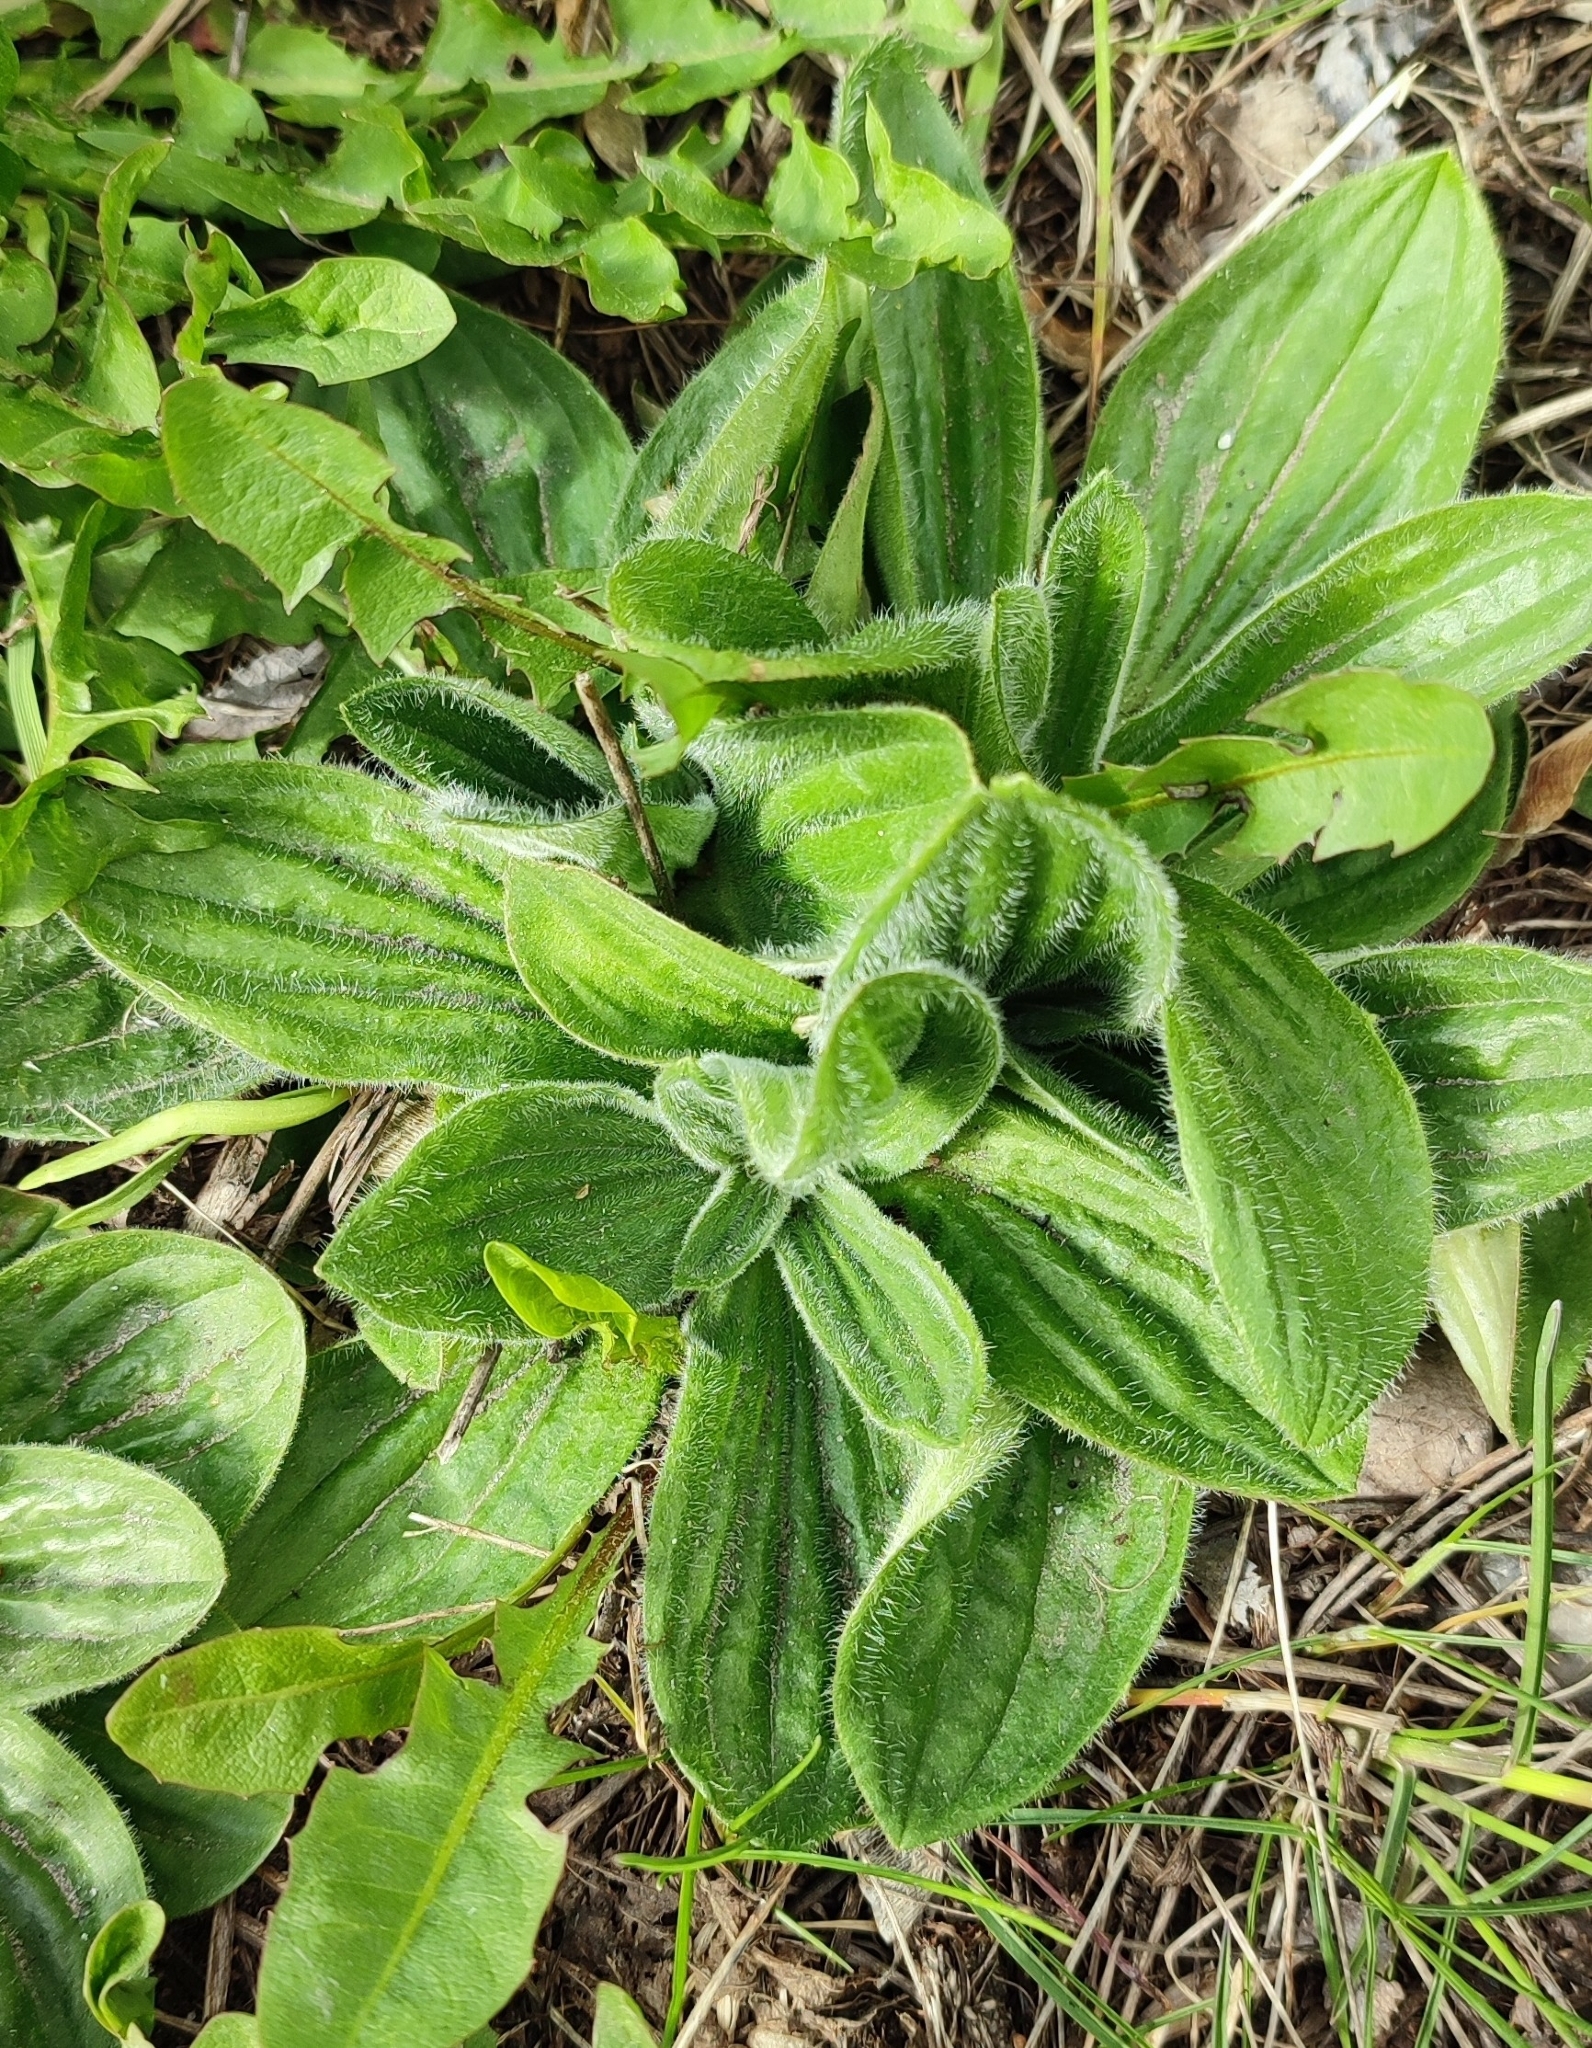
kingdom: Plantae
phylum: Tracheophyta
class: Magnoliopsida
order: Lamiales
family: Plantaginaceae
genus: Plantago
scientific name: Plantago media
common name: Hoary plantain
